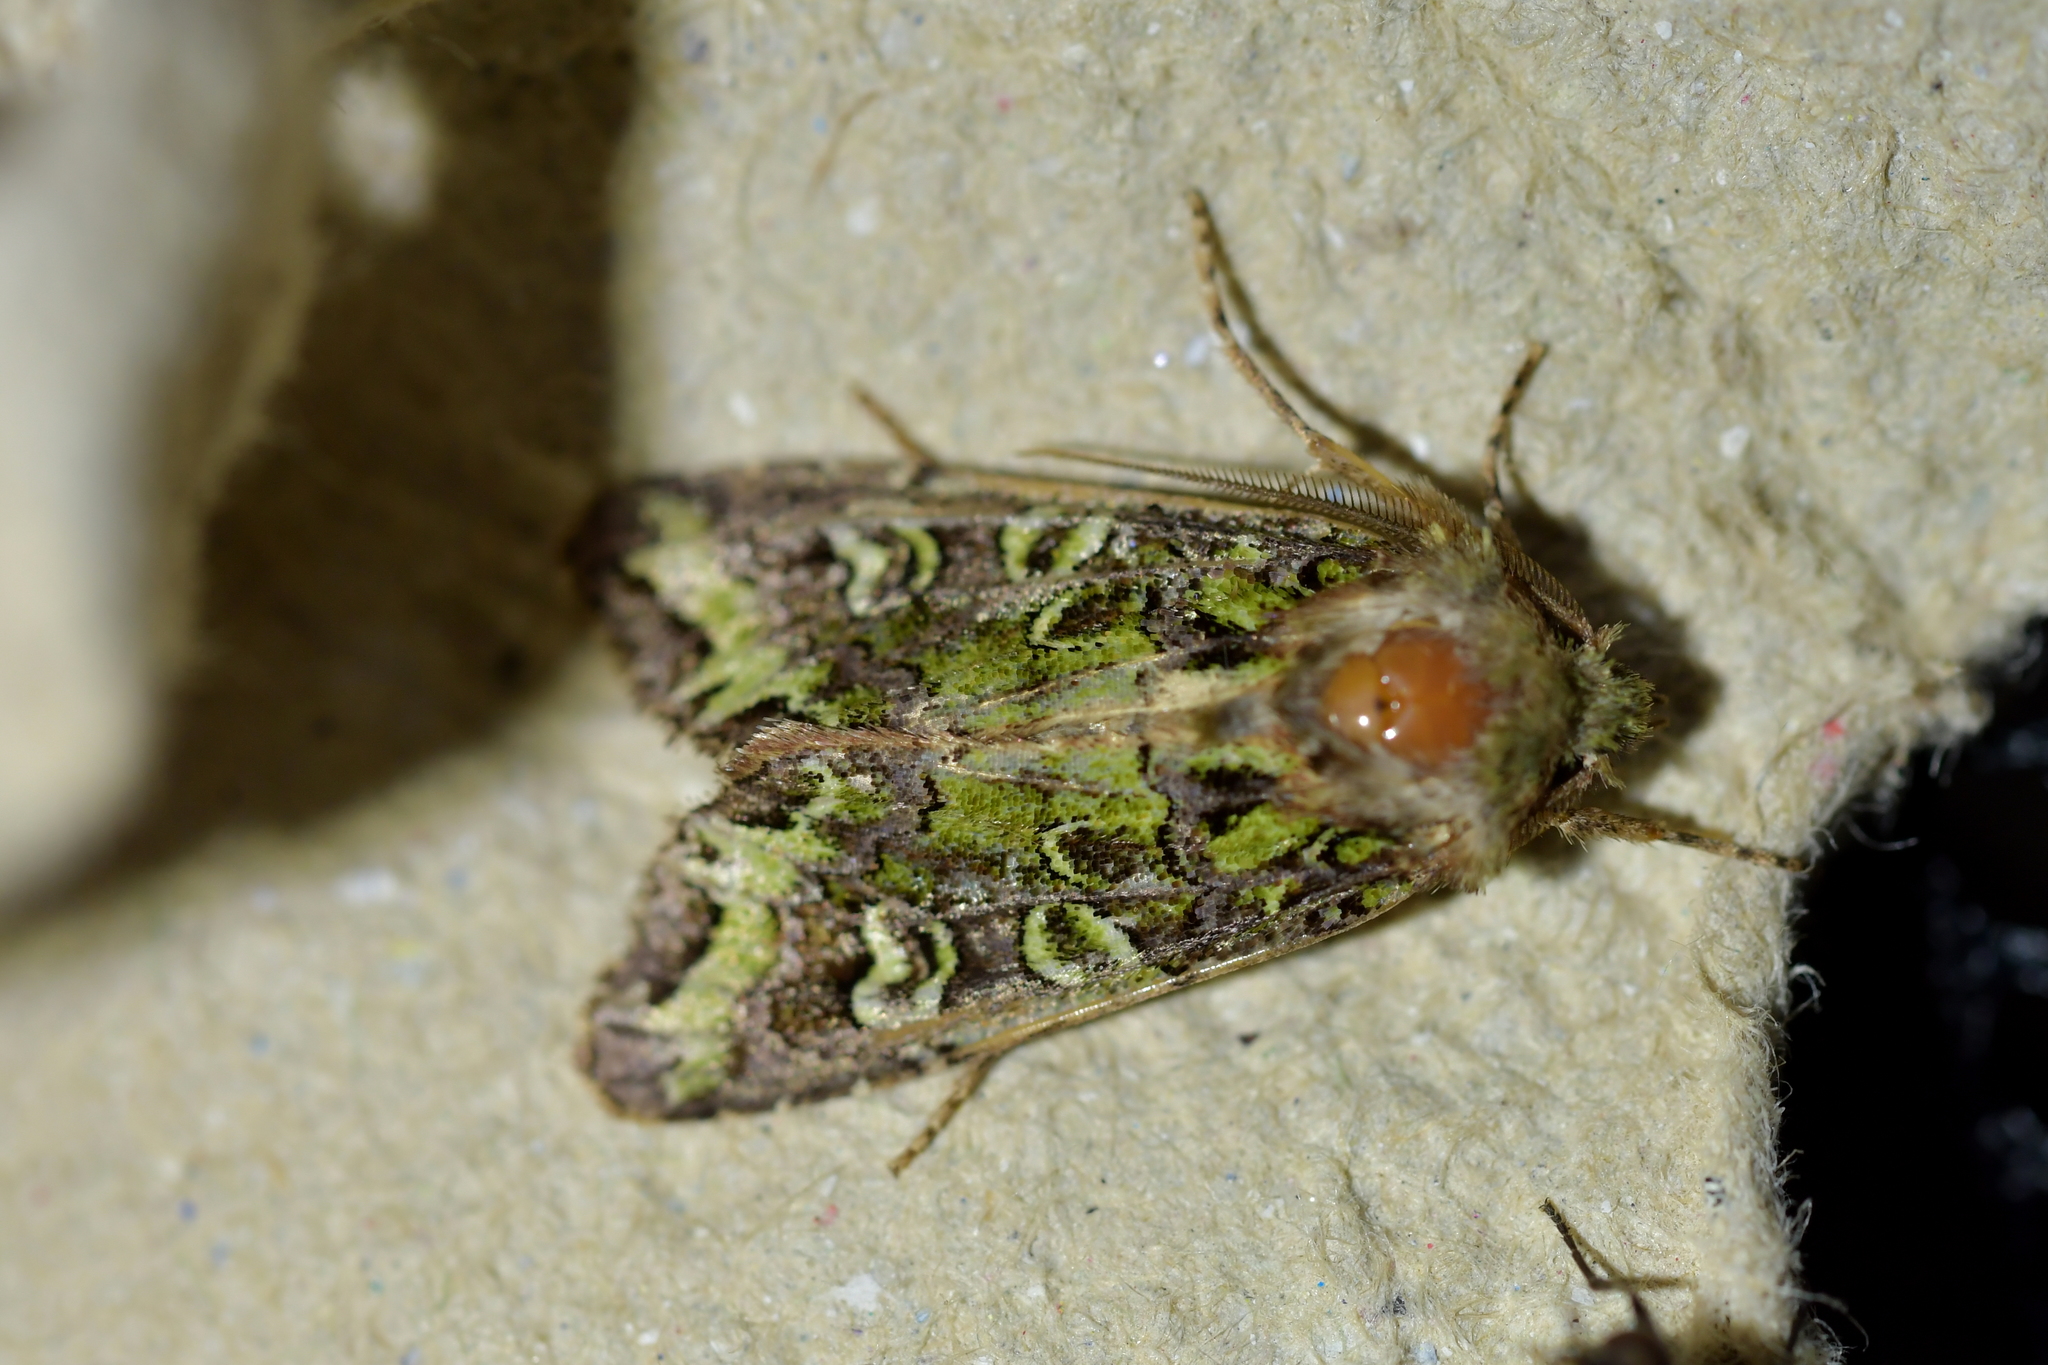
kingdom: Animalia
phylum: Arthropoda
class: Insecta
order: Lepidoptera
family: Noctuidae
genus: Ichneutica
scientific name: Ichneutica chlorodonta
